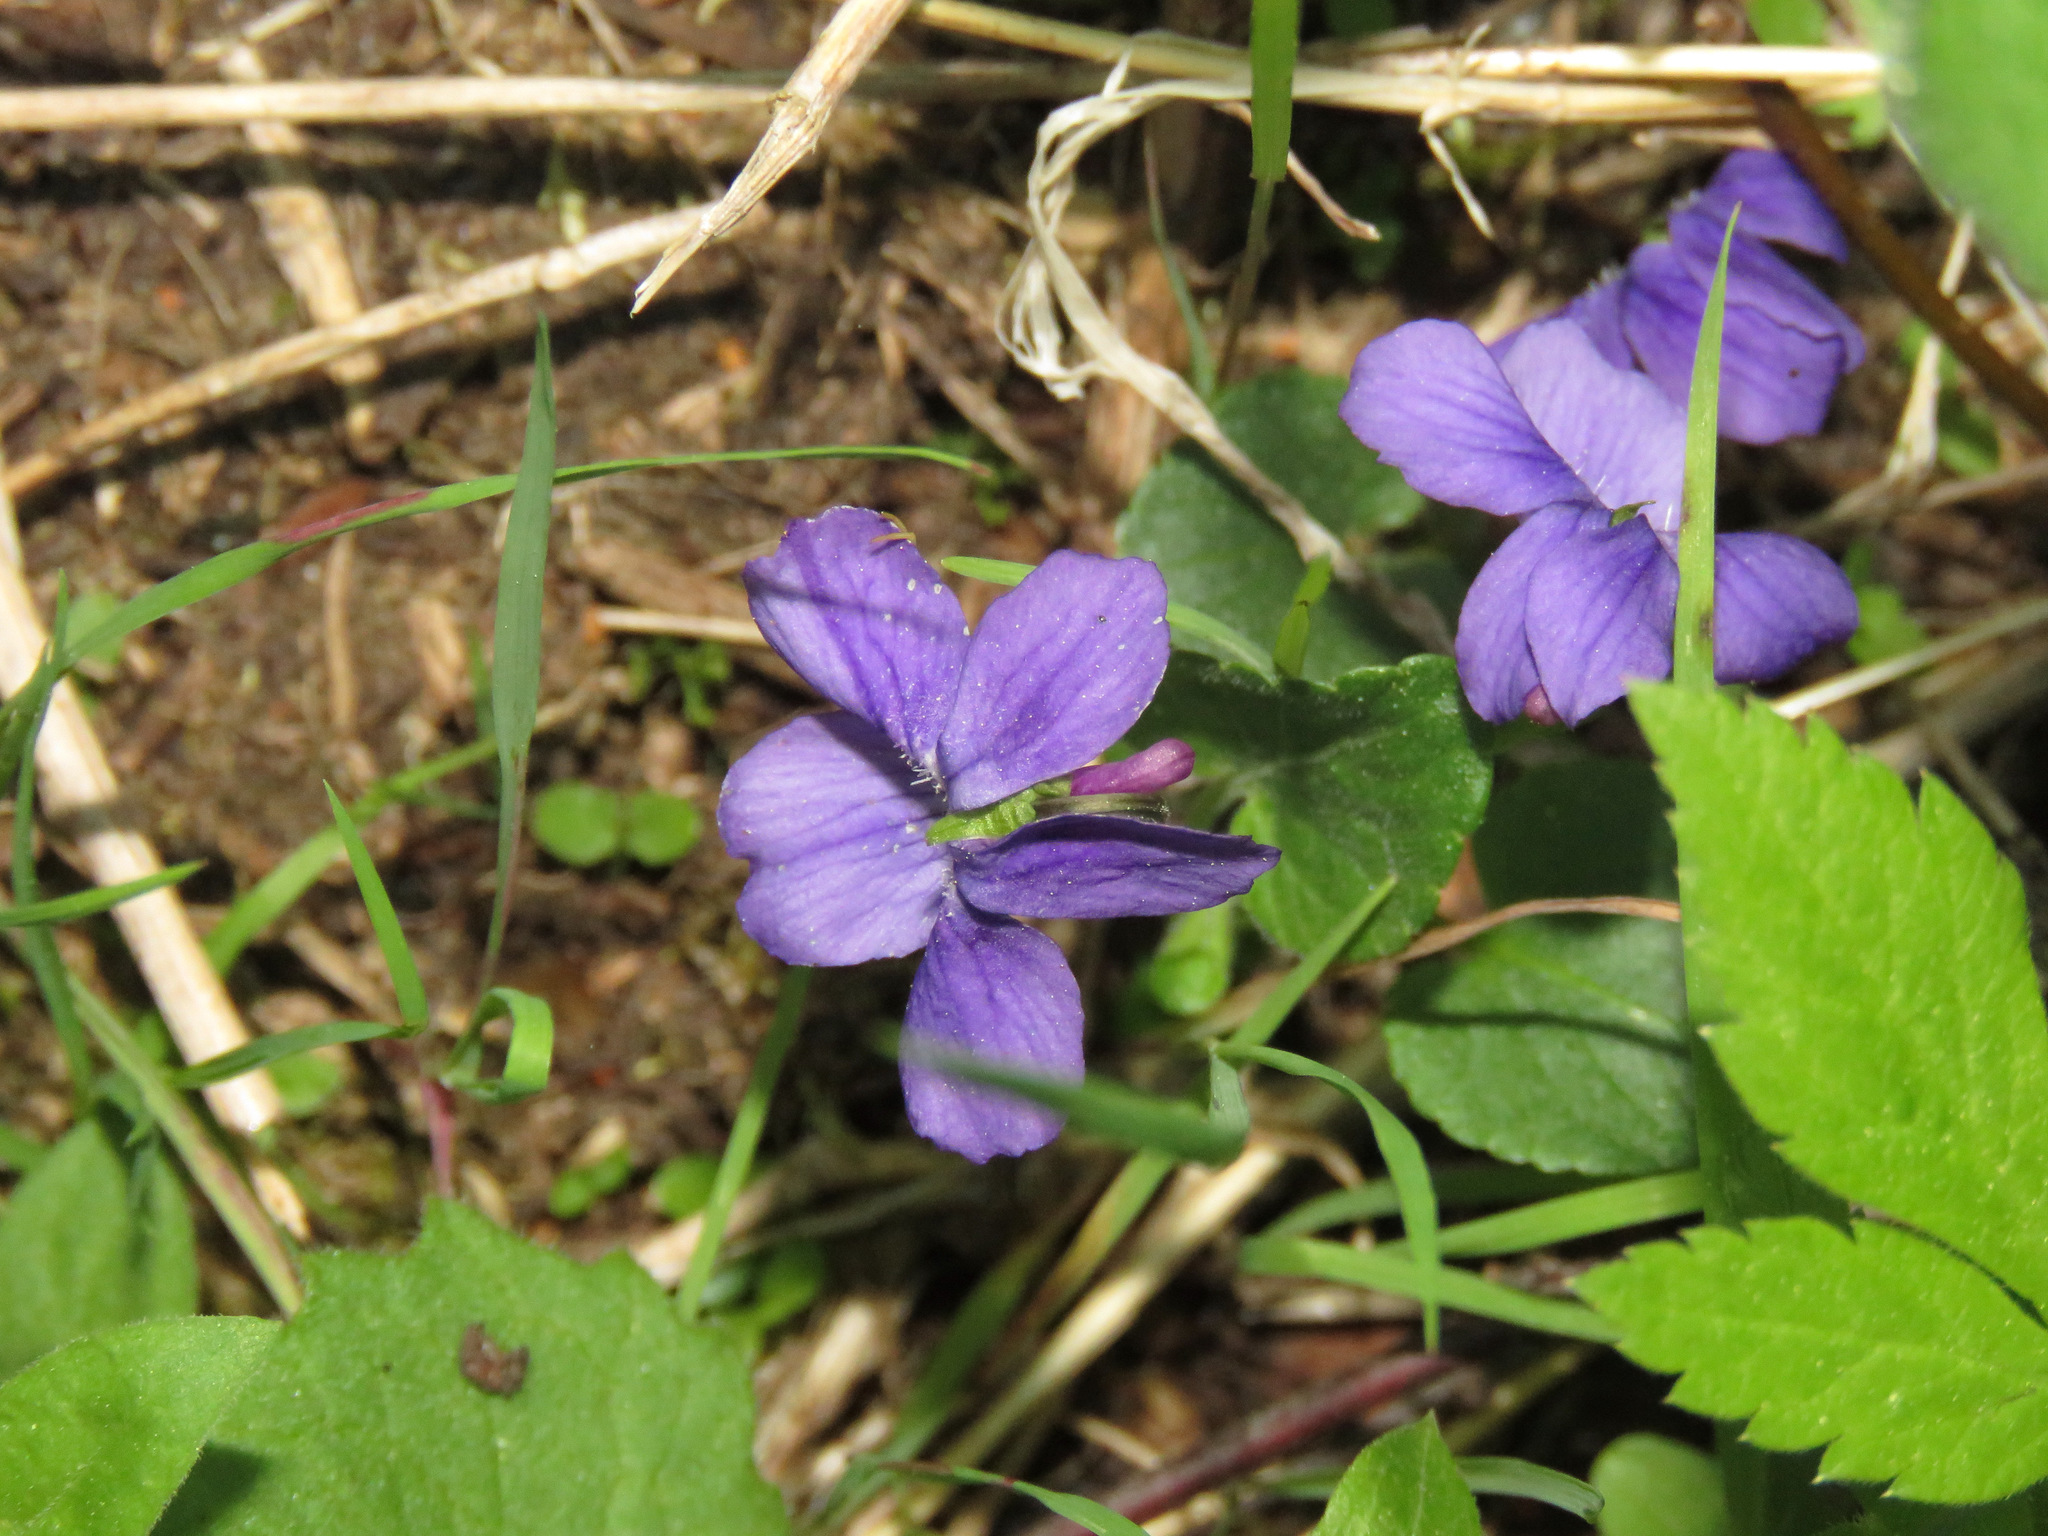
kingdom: Plantae
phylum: Tracheophyta
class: Magnoliopsida
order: Malpighiales
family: Violaceae
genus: Viola
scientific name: Viola adunca
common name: Sand violet
